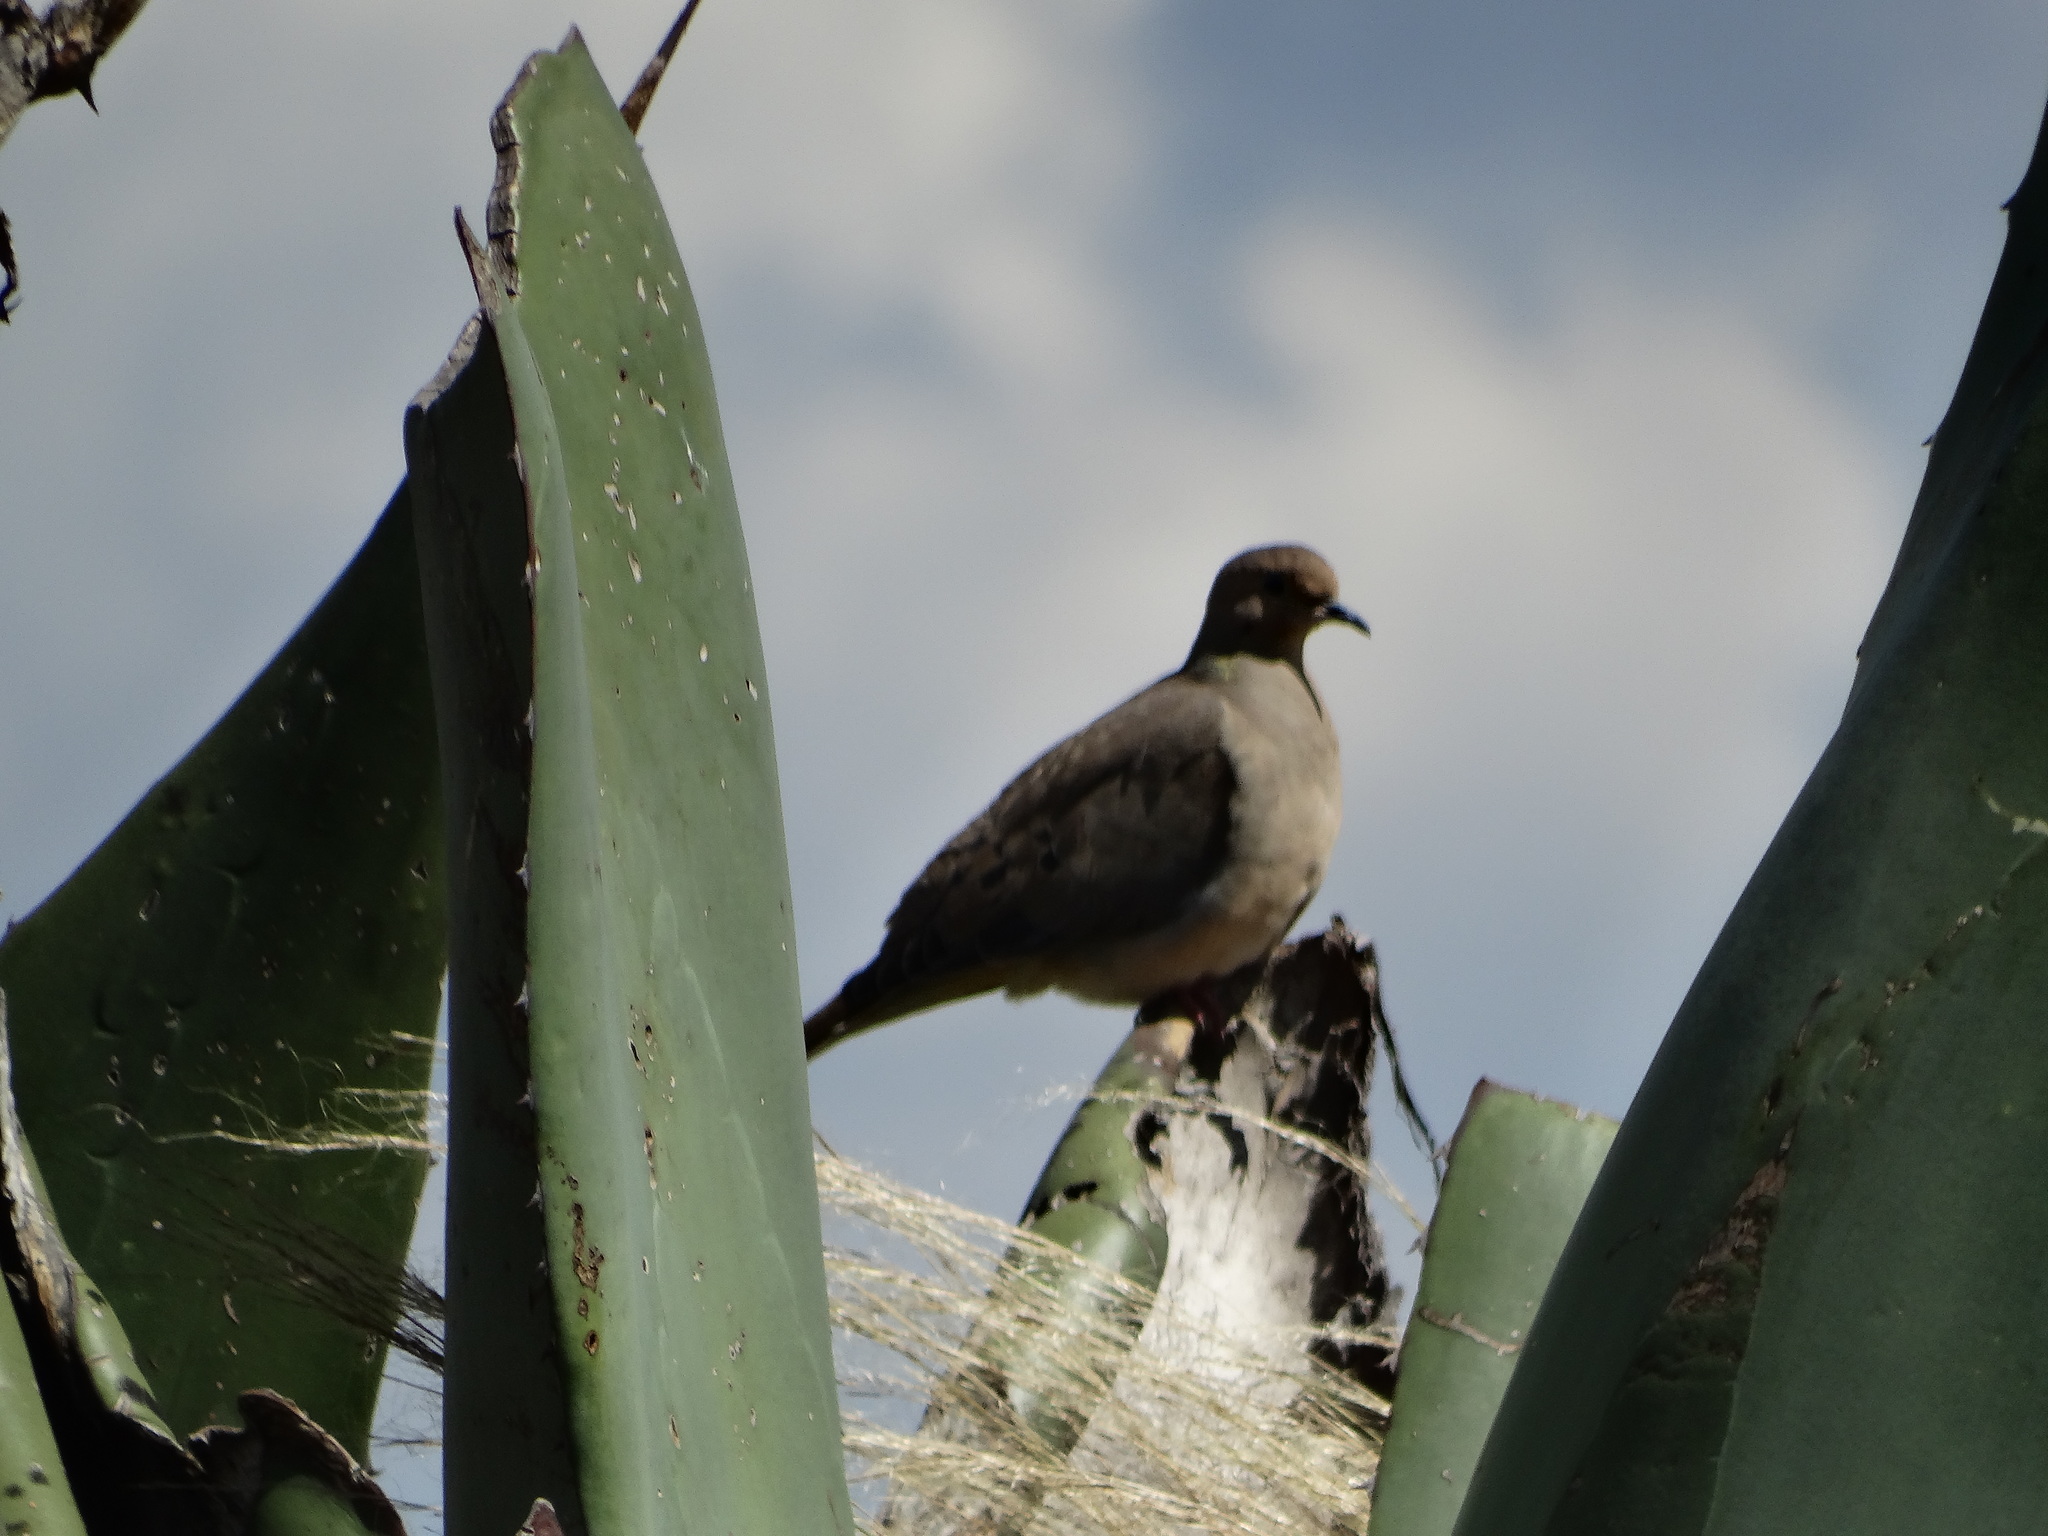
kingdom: Animalia
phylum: Chordata
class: Aves
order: Columbiformes
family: Columbidae
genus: Zenaida
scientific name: Zenaida macroura
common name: Mourning dove
